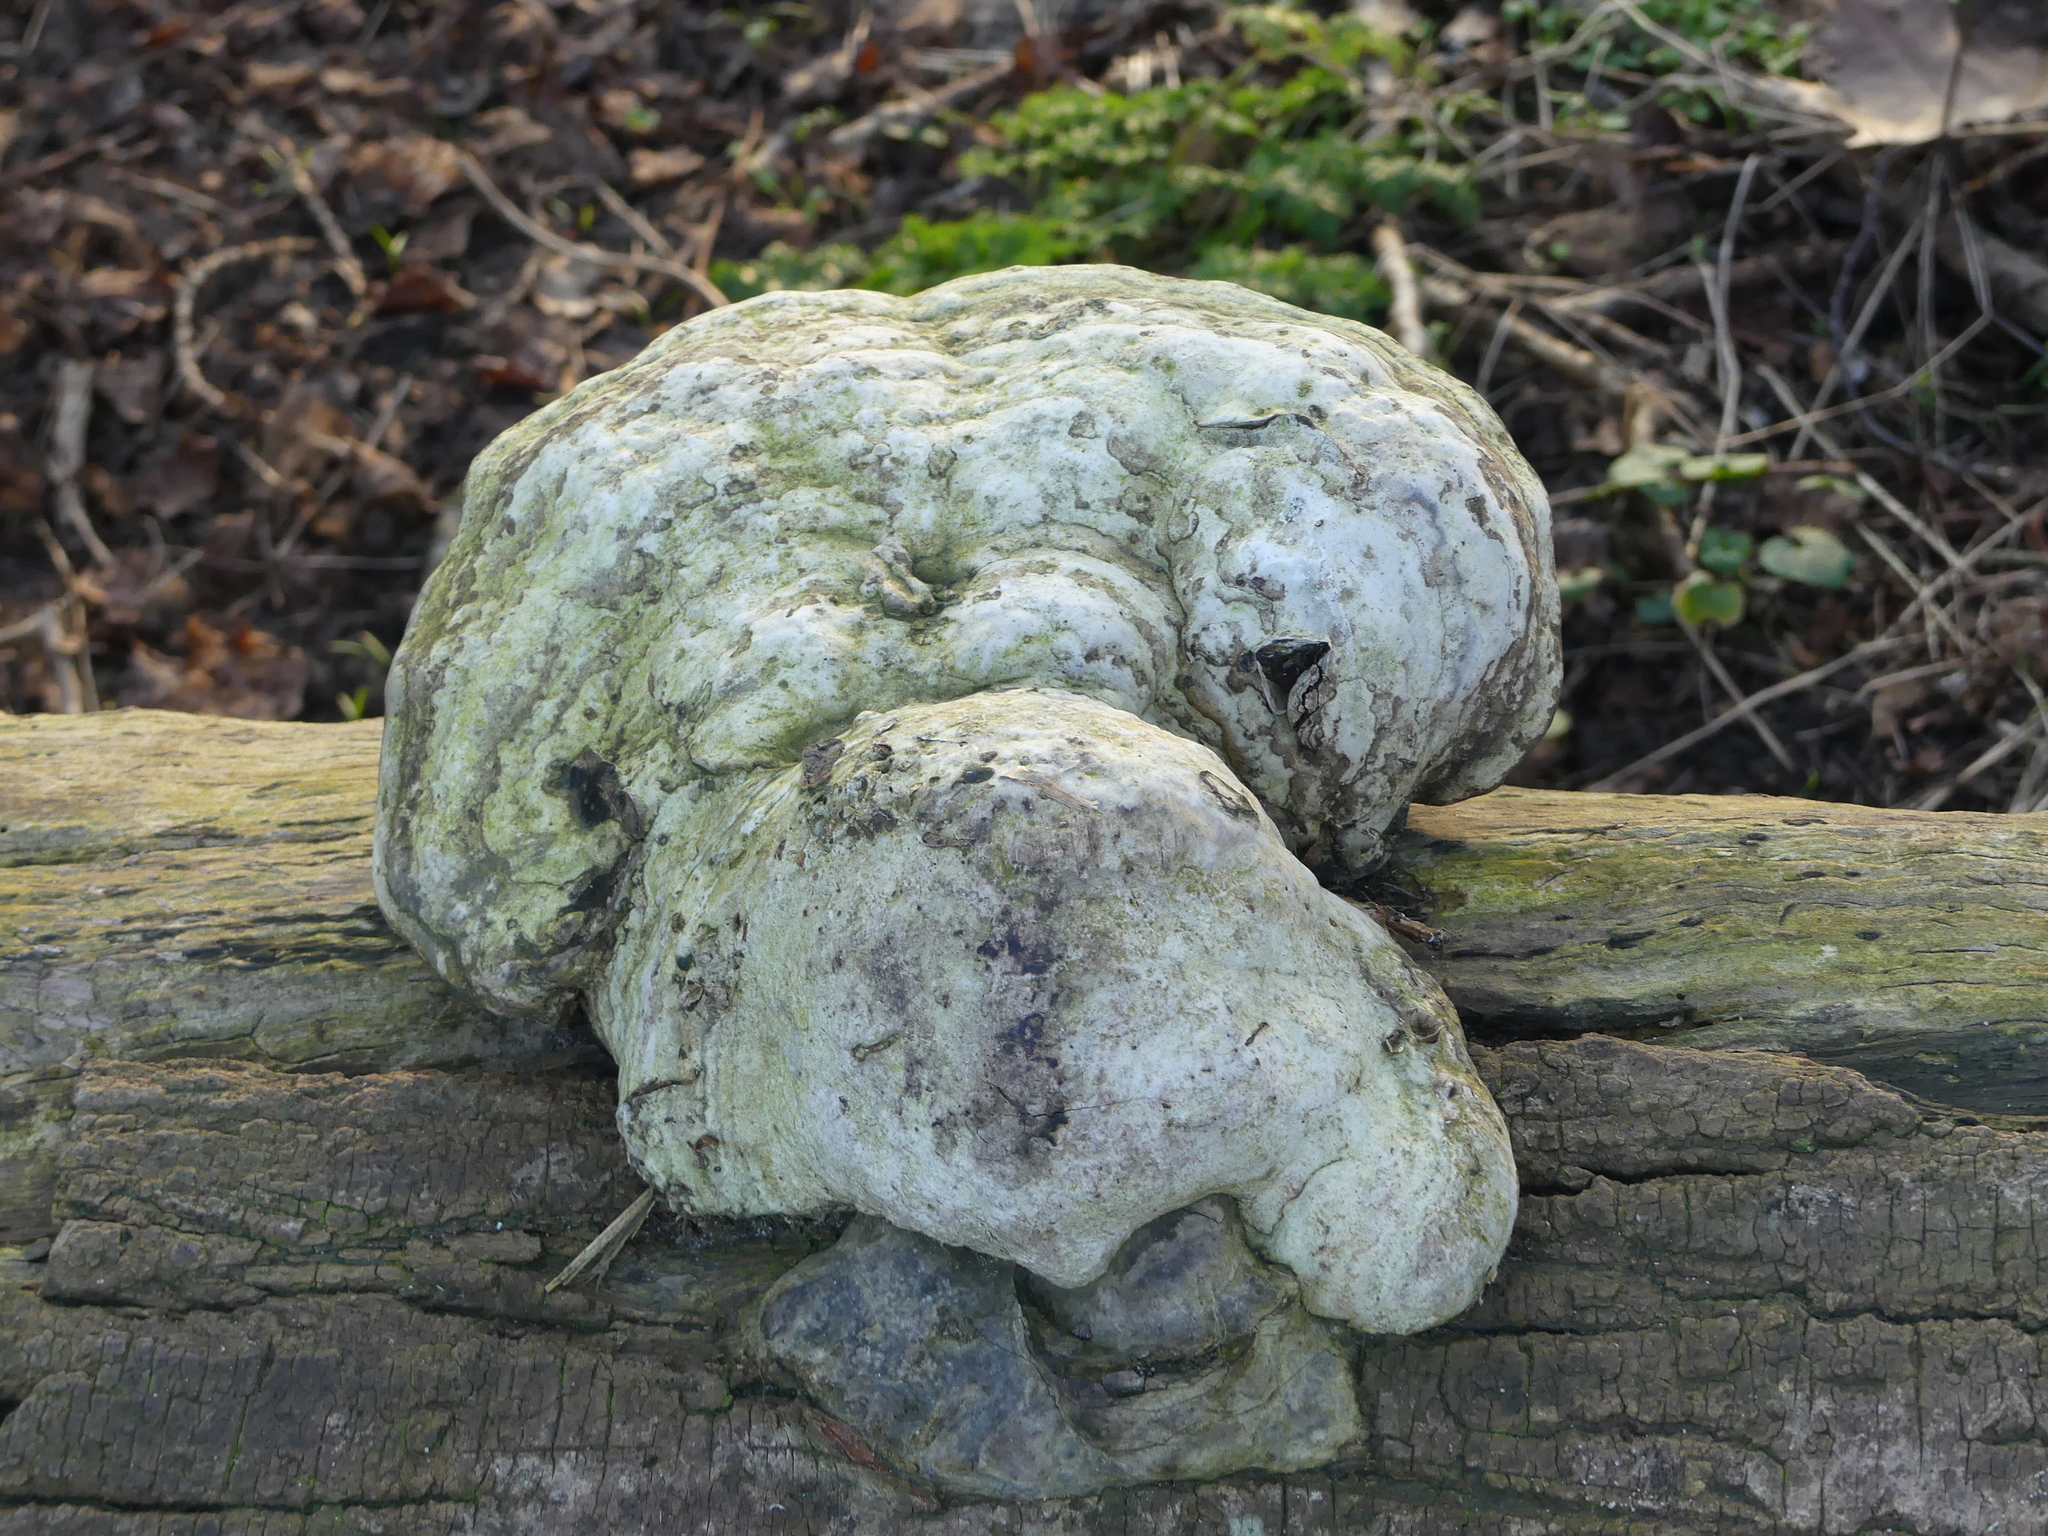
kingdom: Fungi
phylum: Basidiomycota
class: Agaricomycetes
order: Polyporales
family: Polyporaceae
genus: Fomes
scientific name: Fomes fomentarius
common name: Hoof fungus
